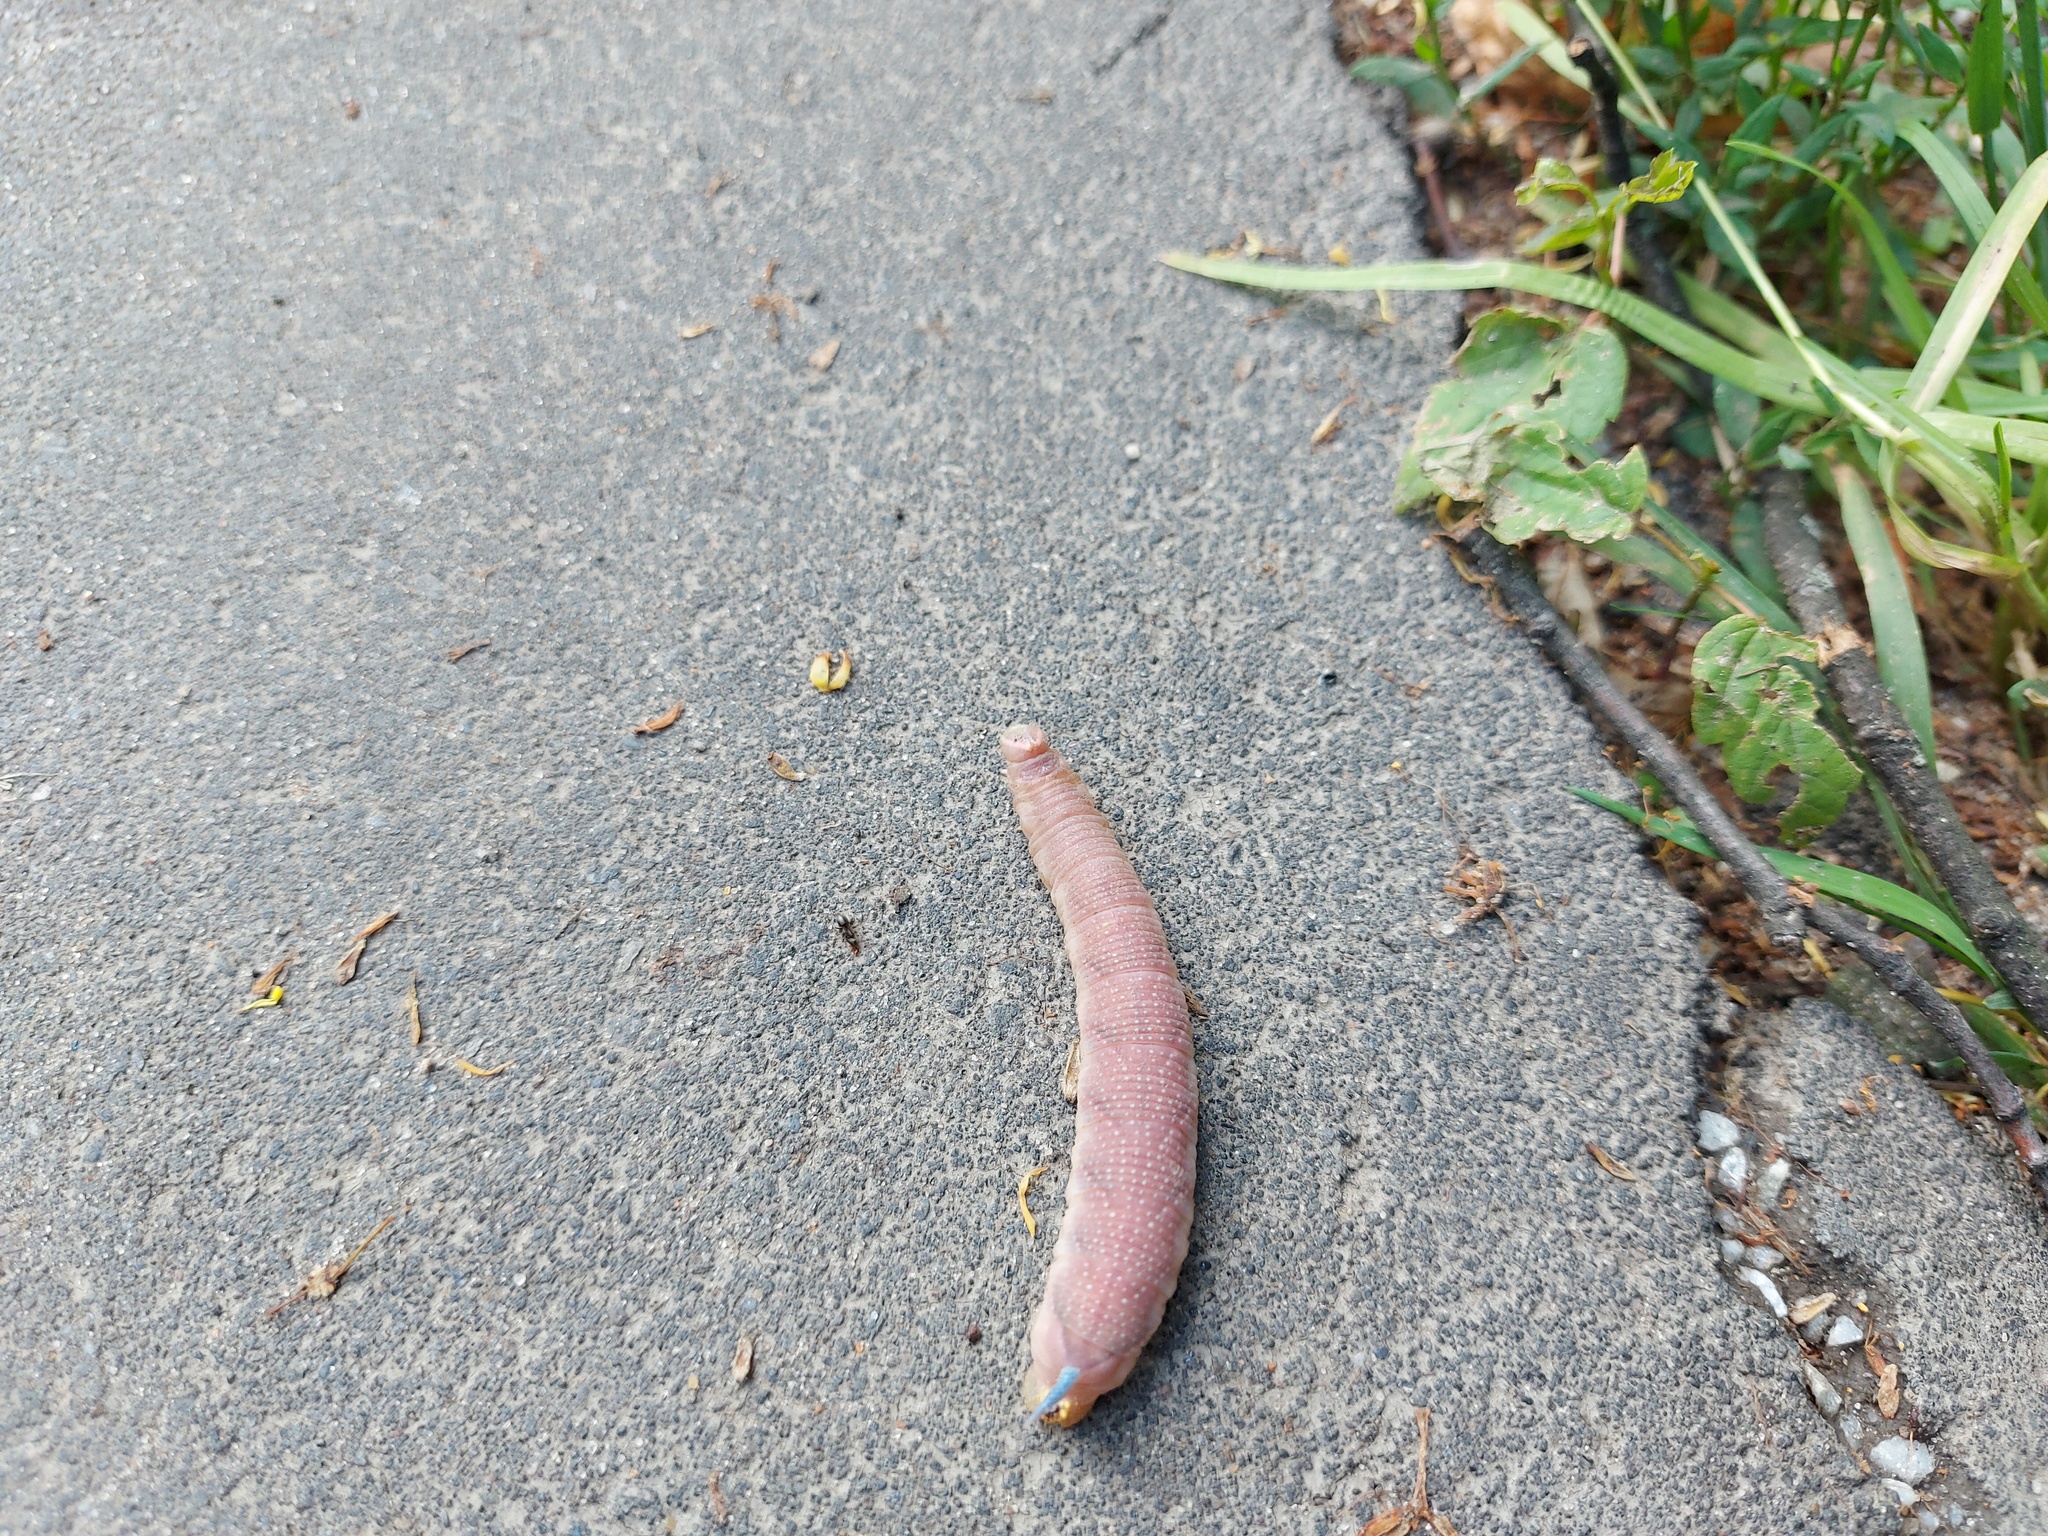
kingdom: Animalia
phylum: Arthropoda
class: Insecta
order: Lepidoptera
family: Sphingidae
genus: Mimas
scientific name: Mimas tiliae
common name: Lime hawk-moth
